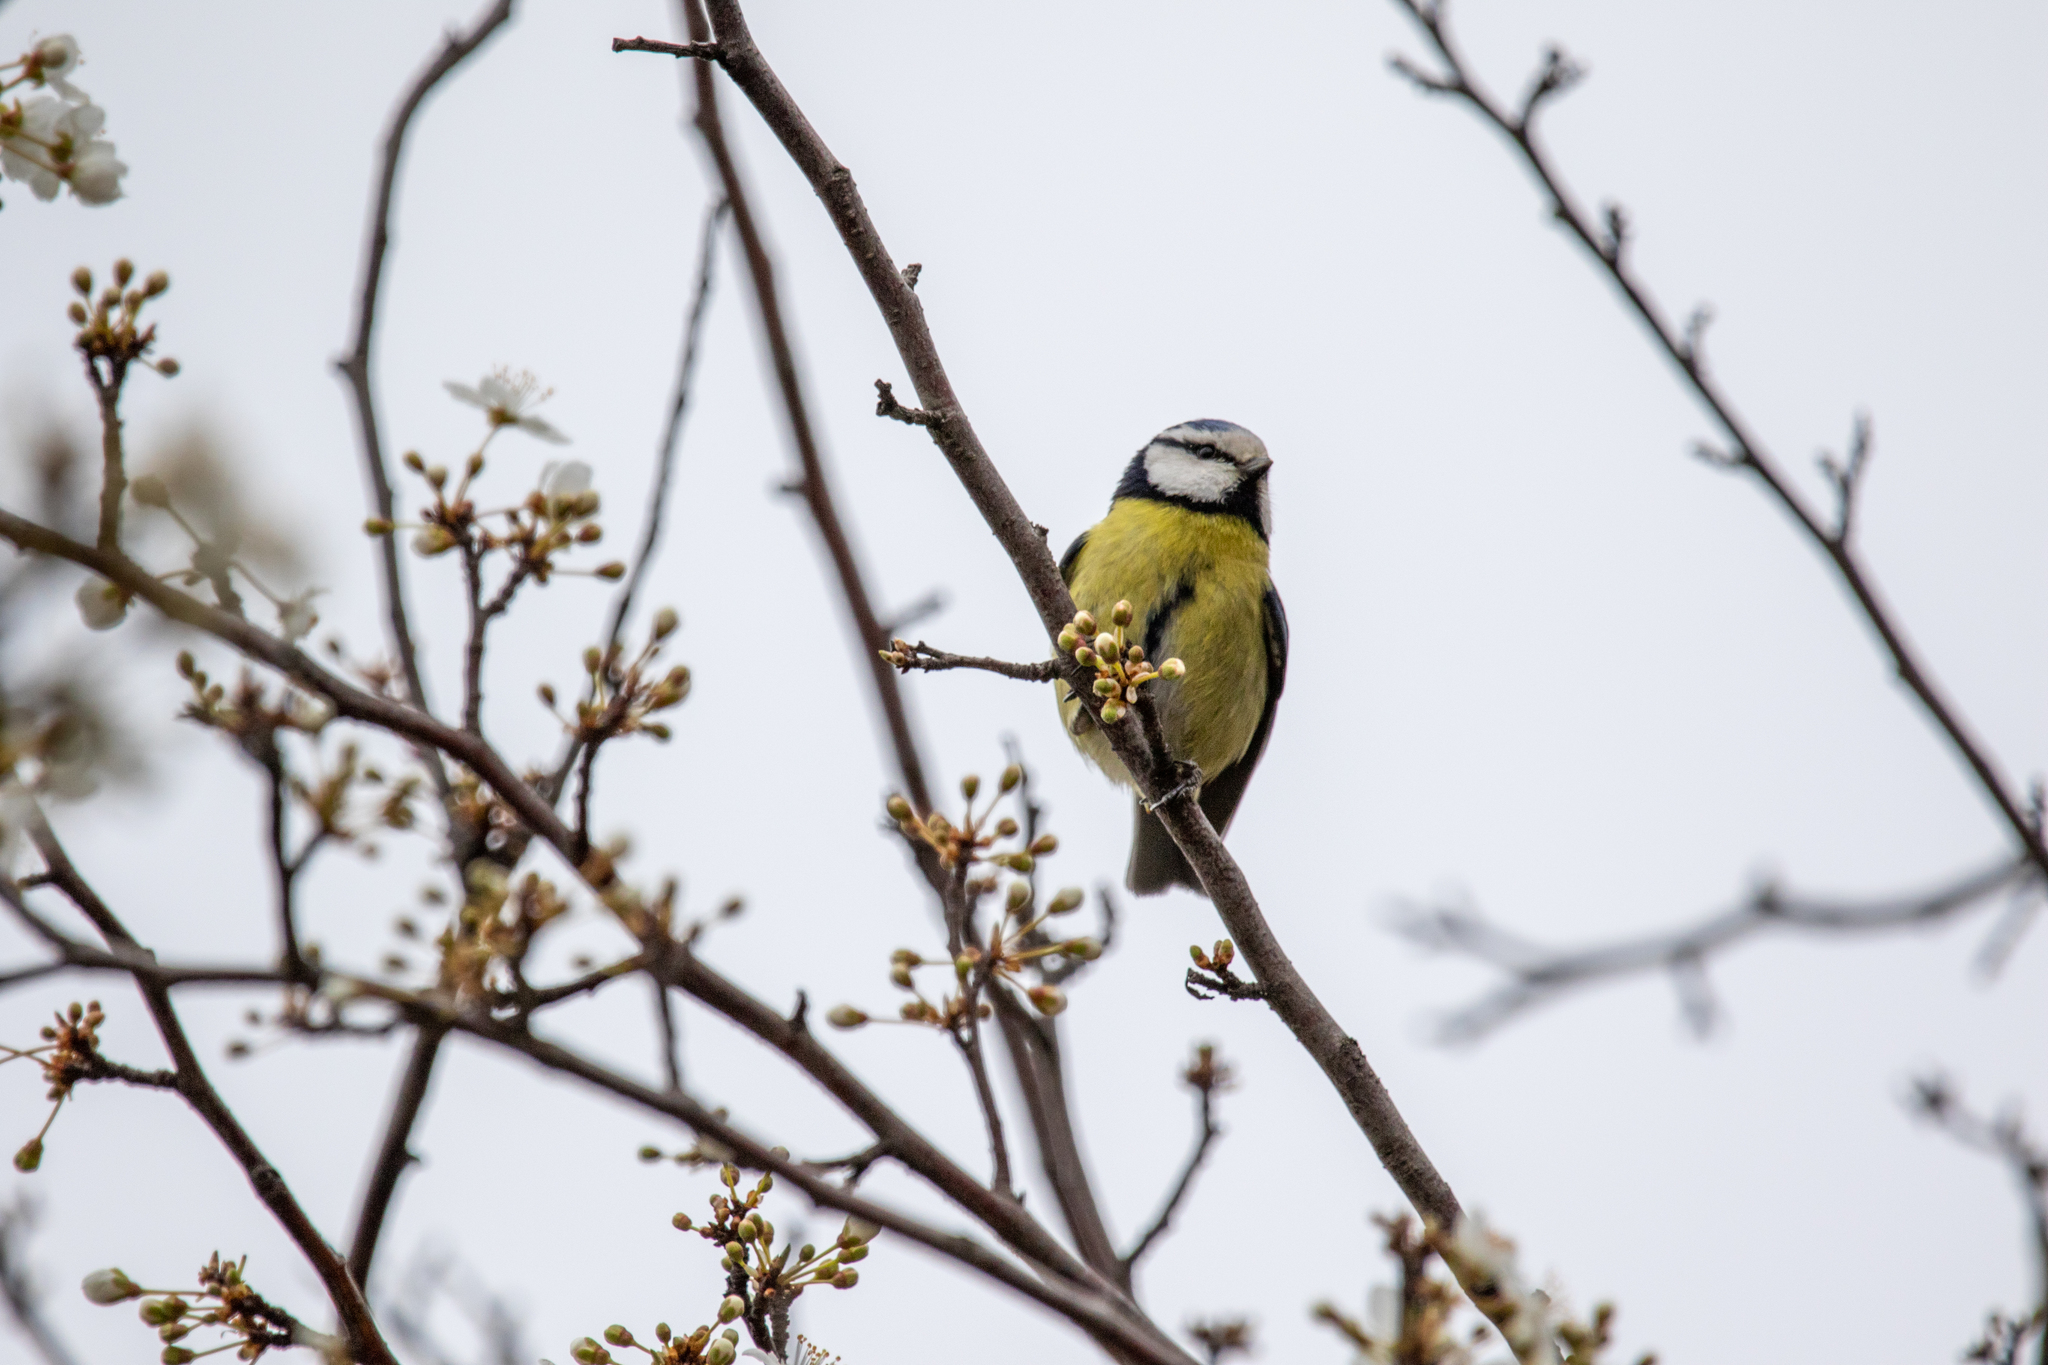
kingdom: Animalia
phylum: Chordata
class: Aves
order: Passeriformes
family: Paridae
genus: Cyanistes
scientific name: Cyanistes caeruleus
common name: Eurasian blue tit
